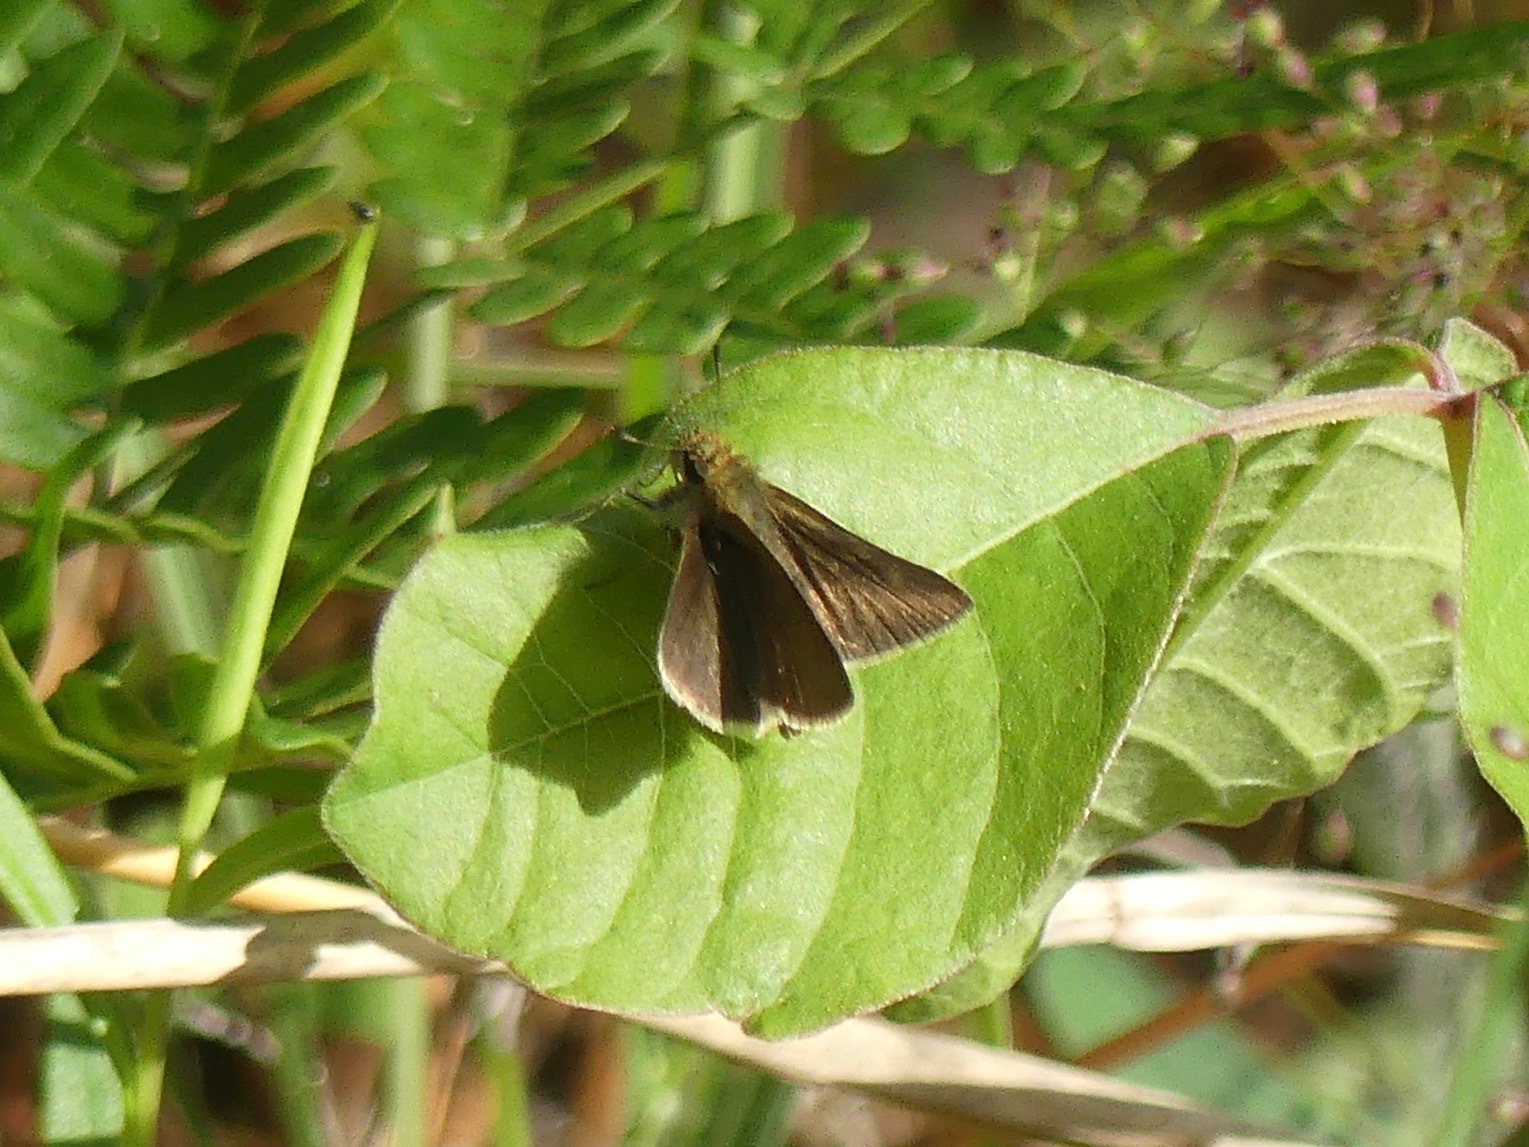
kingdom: Animalia
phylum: Arthropoda
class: Insecta
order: Lepidoptera
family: Hesperiidae
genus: Euphyes
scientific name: Euphyes vestris
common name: Dun skipper
